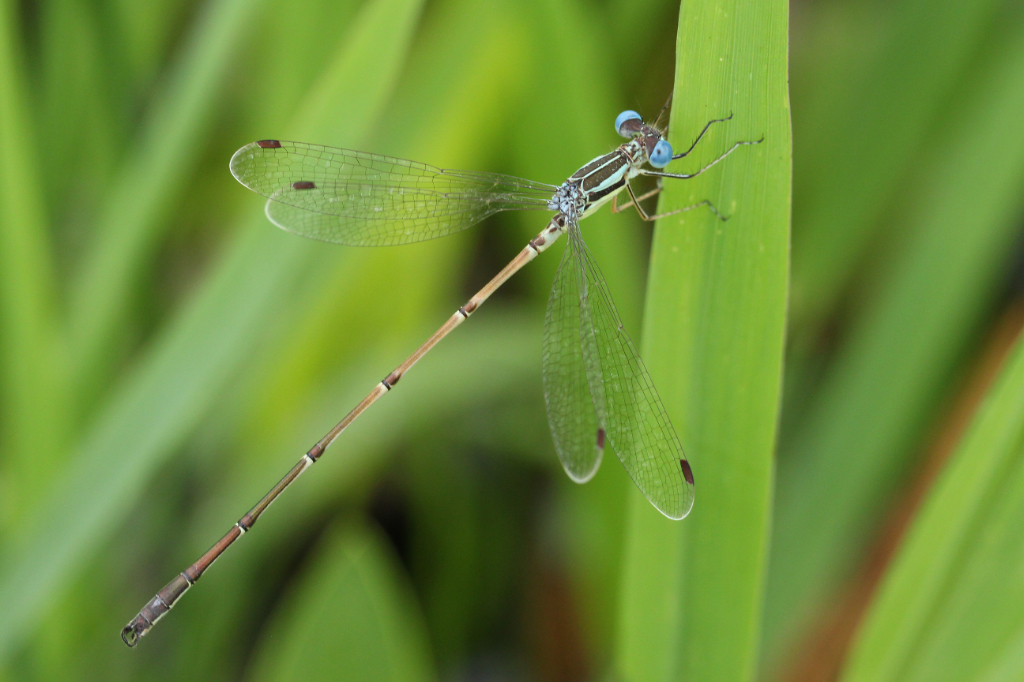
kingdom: Animalia
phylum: Arthropoda
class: Insecta
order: Odonata
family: Lestidae
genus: Lestes
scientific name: Lestes rectangularis
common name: Slender spreadwing
